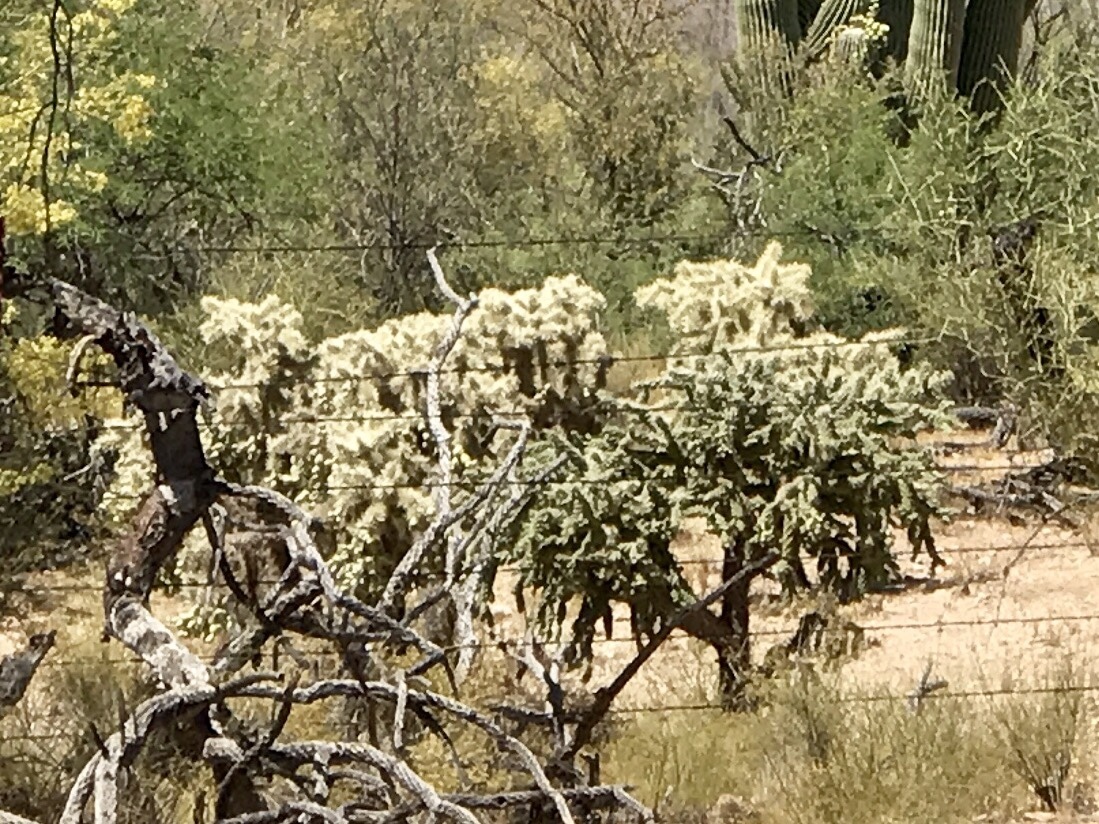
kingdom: Plantae
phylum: Tracheophyta
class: Magnoliopsida
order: Caryophyllales
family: Cactaceae
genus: Cylindropuntia
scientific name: Cylindropuntia fulgida
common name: Jumping cholla
